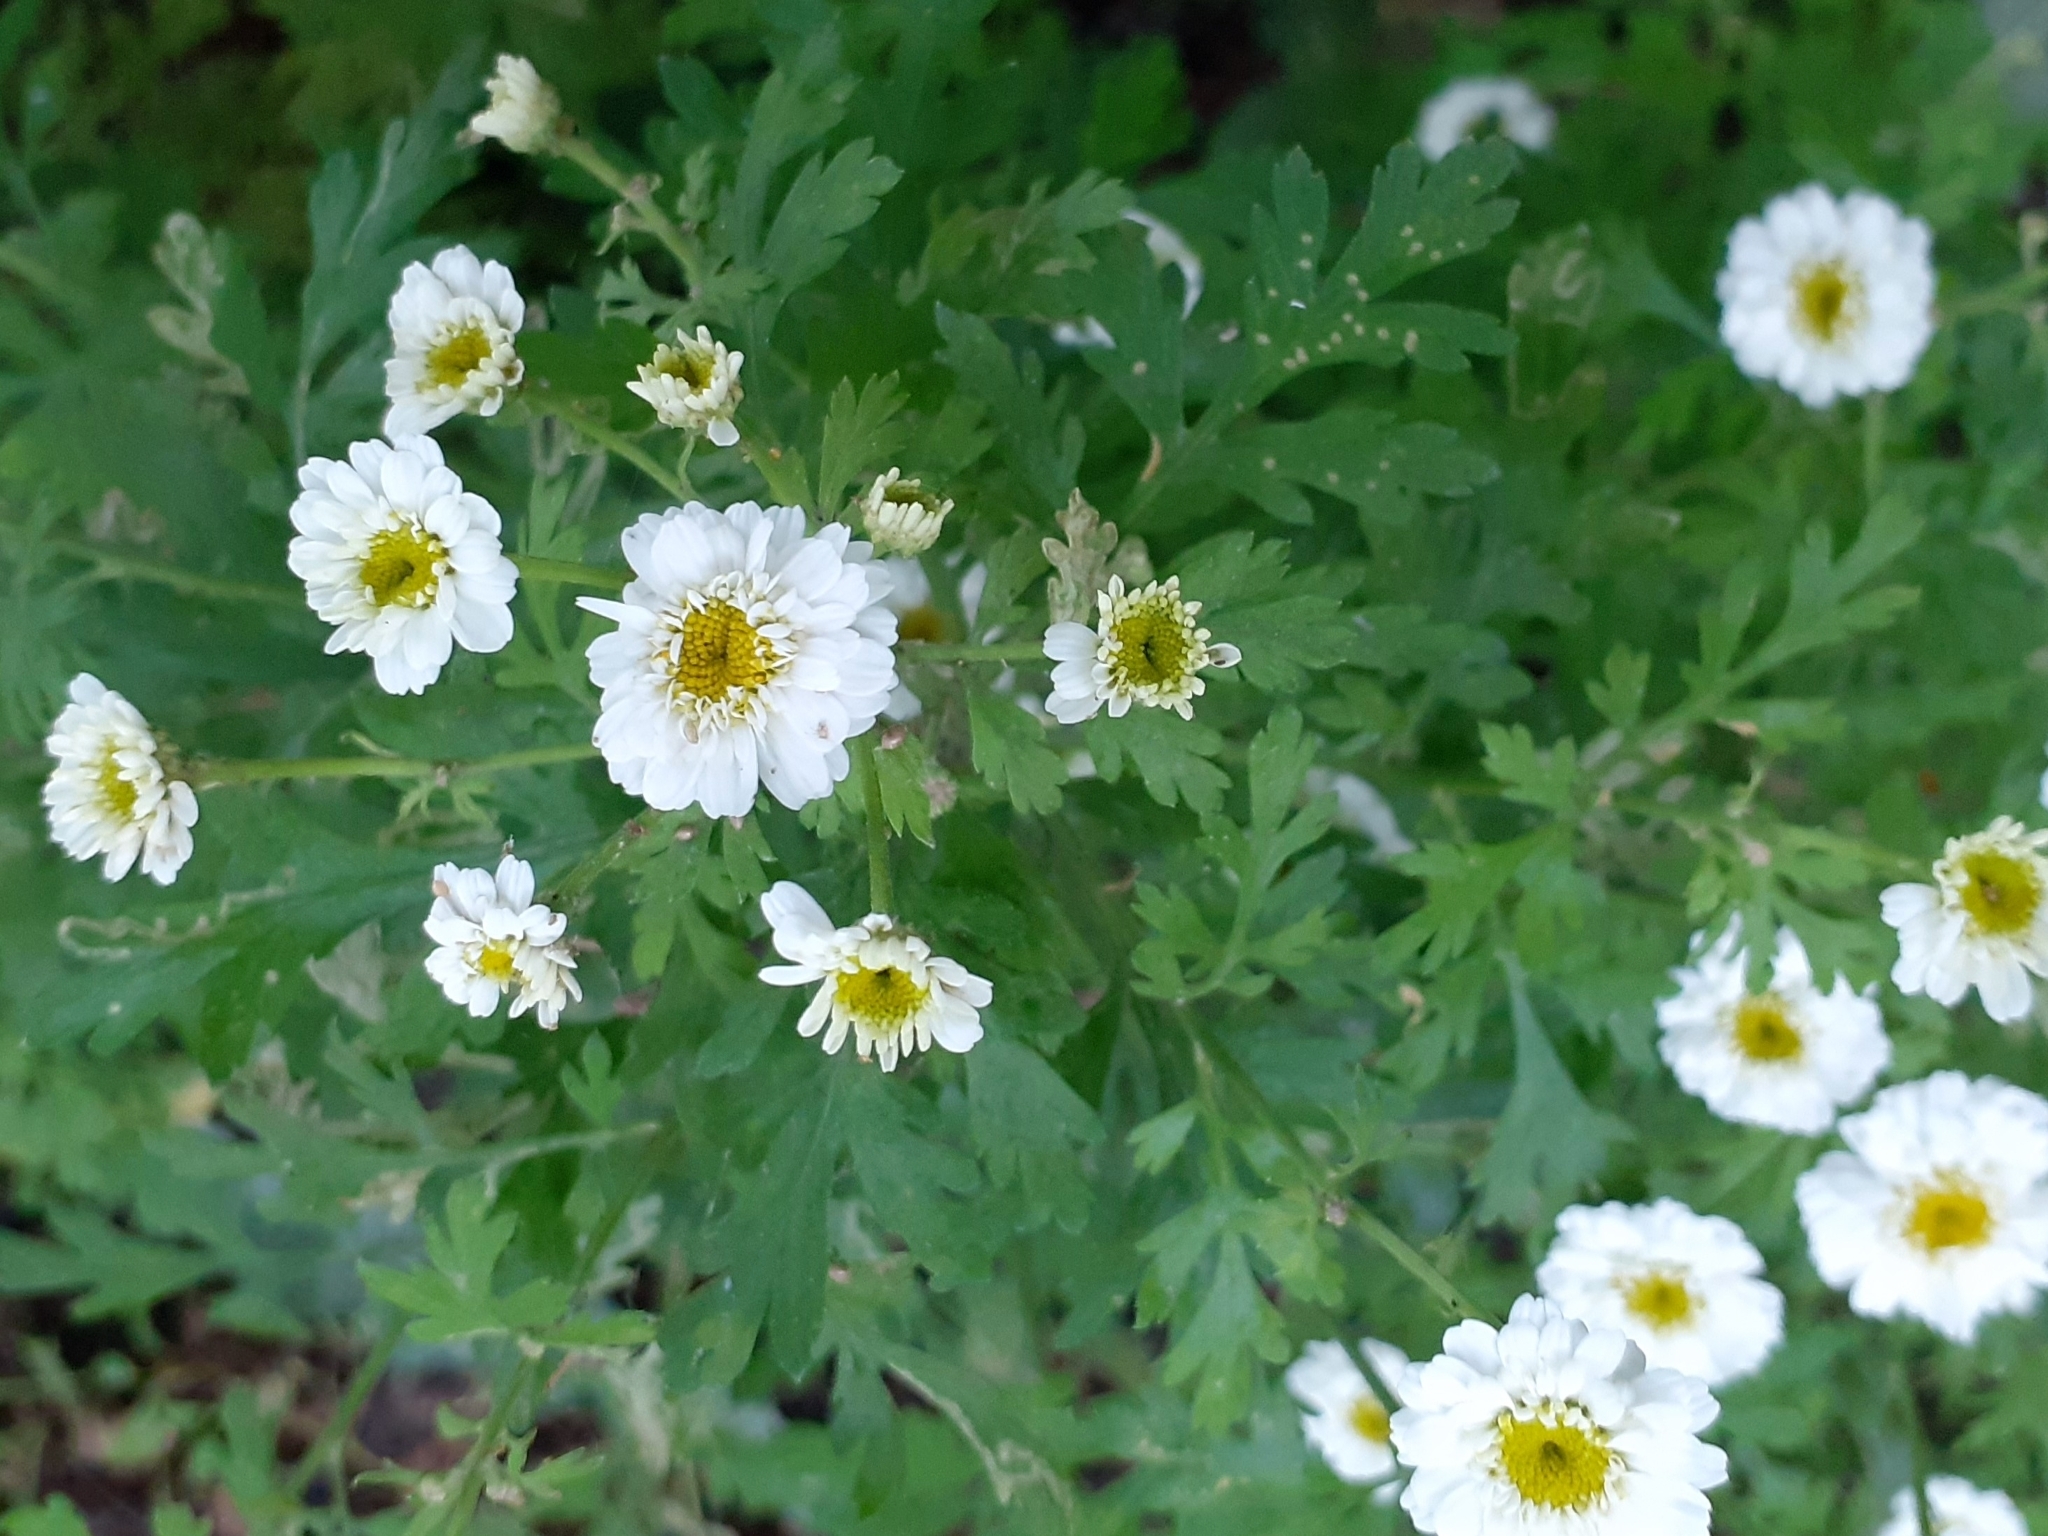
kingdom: Plantae
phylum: Tracheophyta
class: Magnoliopsida
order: Asterales
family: Asteraceae
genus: Tanacetum
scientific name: Tanacetum parthenium
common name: Feverfew
